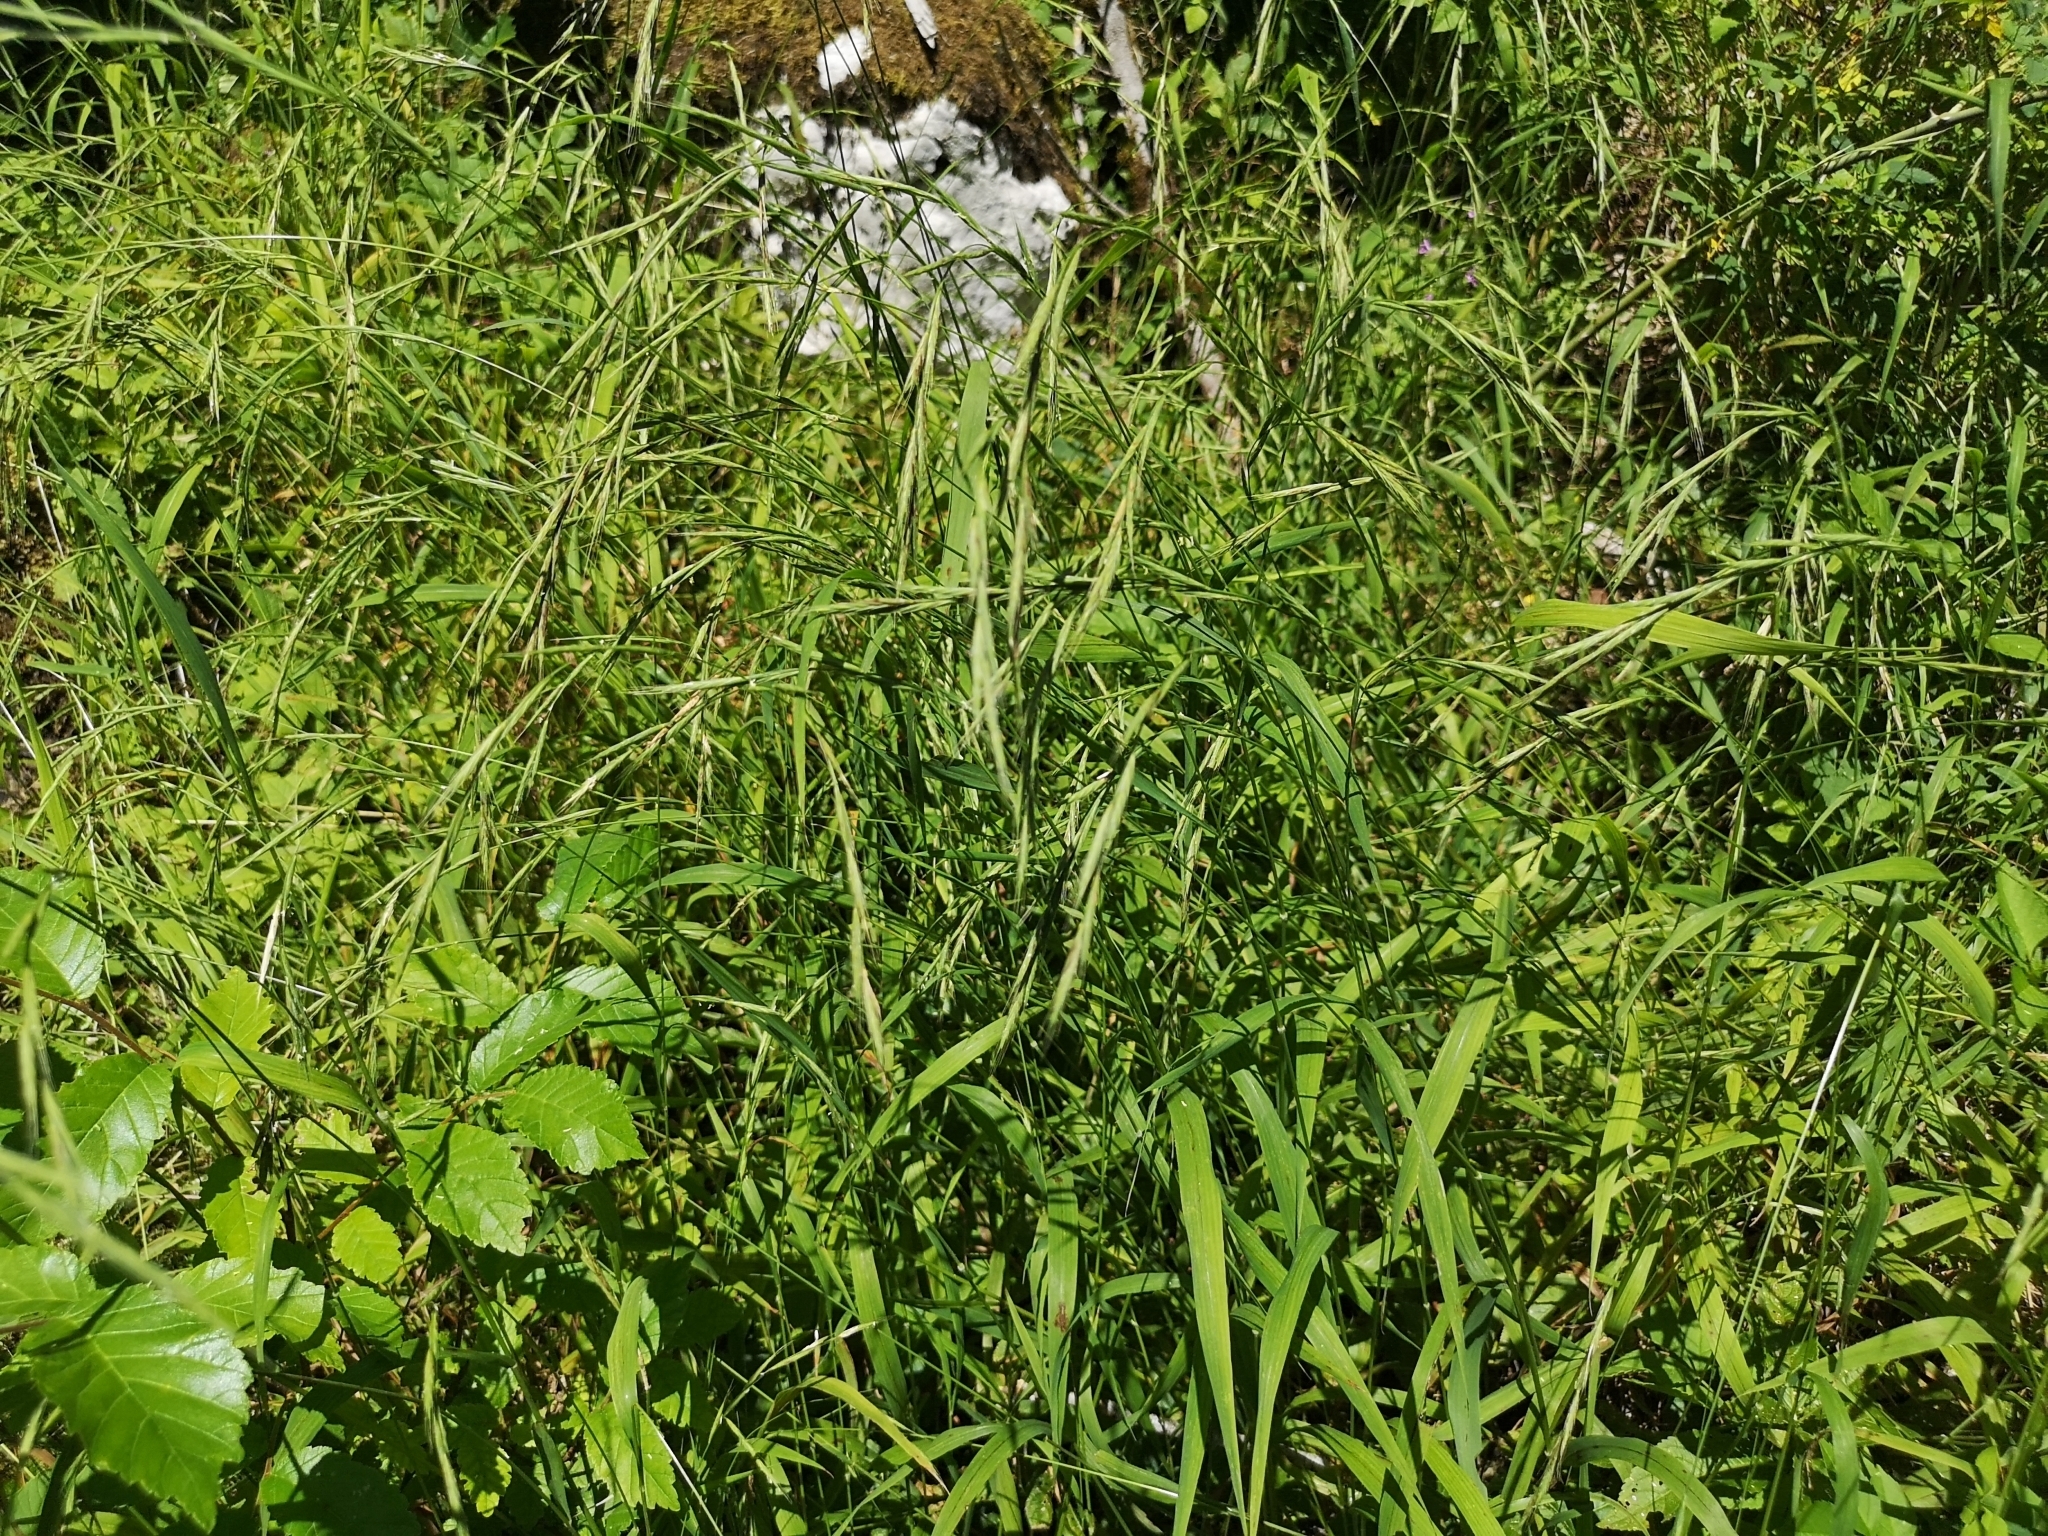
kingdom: Plantae
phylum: Tracheophyta
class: Liliopsida
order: Poales
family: Poaceae
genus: Brachypodium
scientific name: Brachypodium sylvaticum
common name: False-brome
